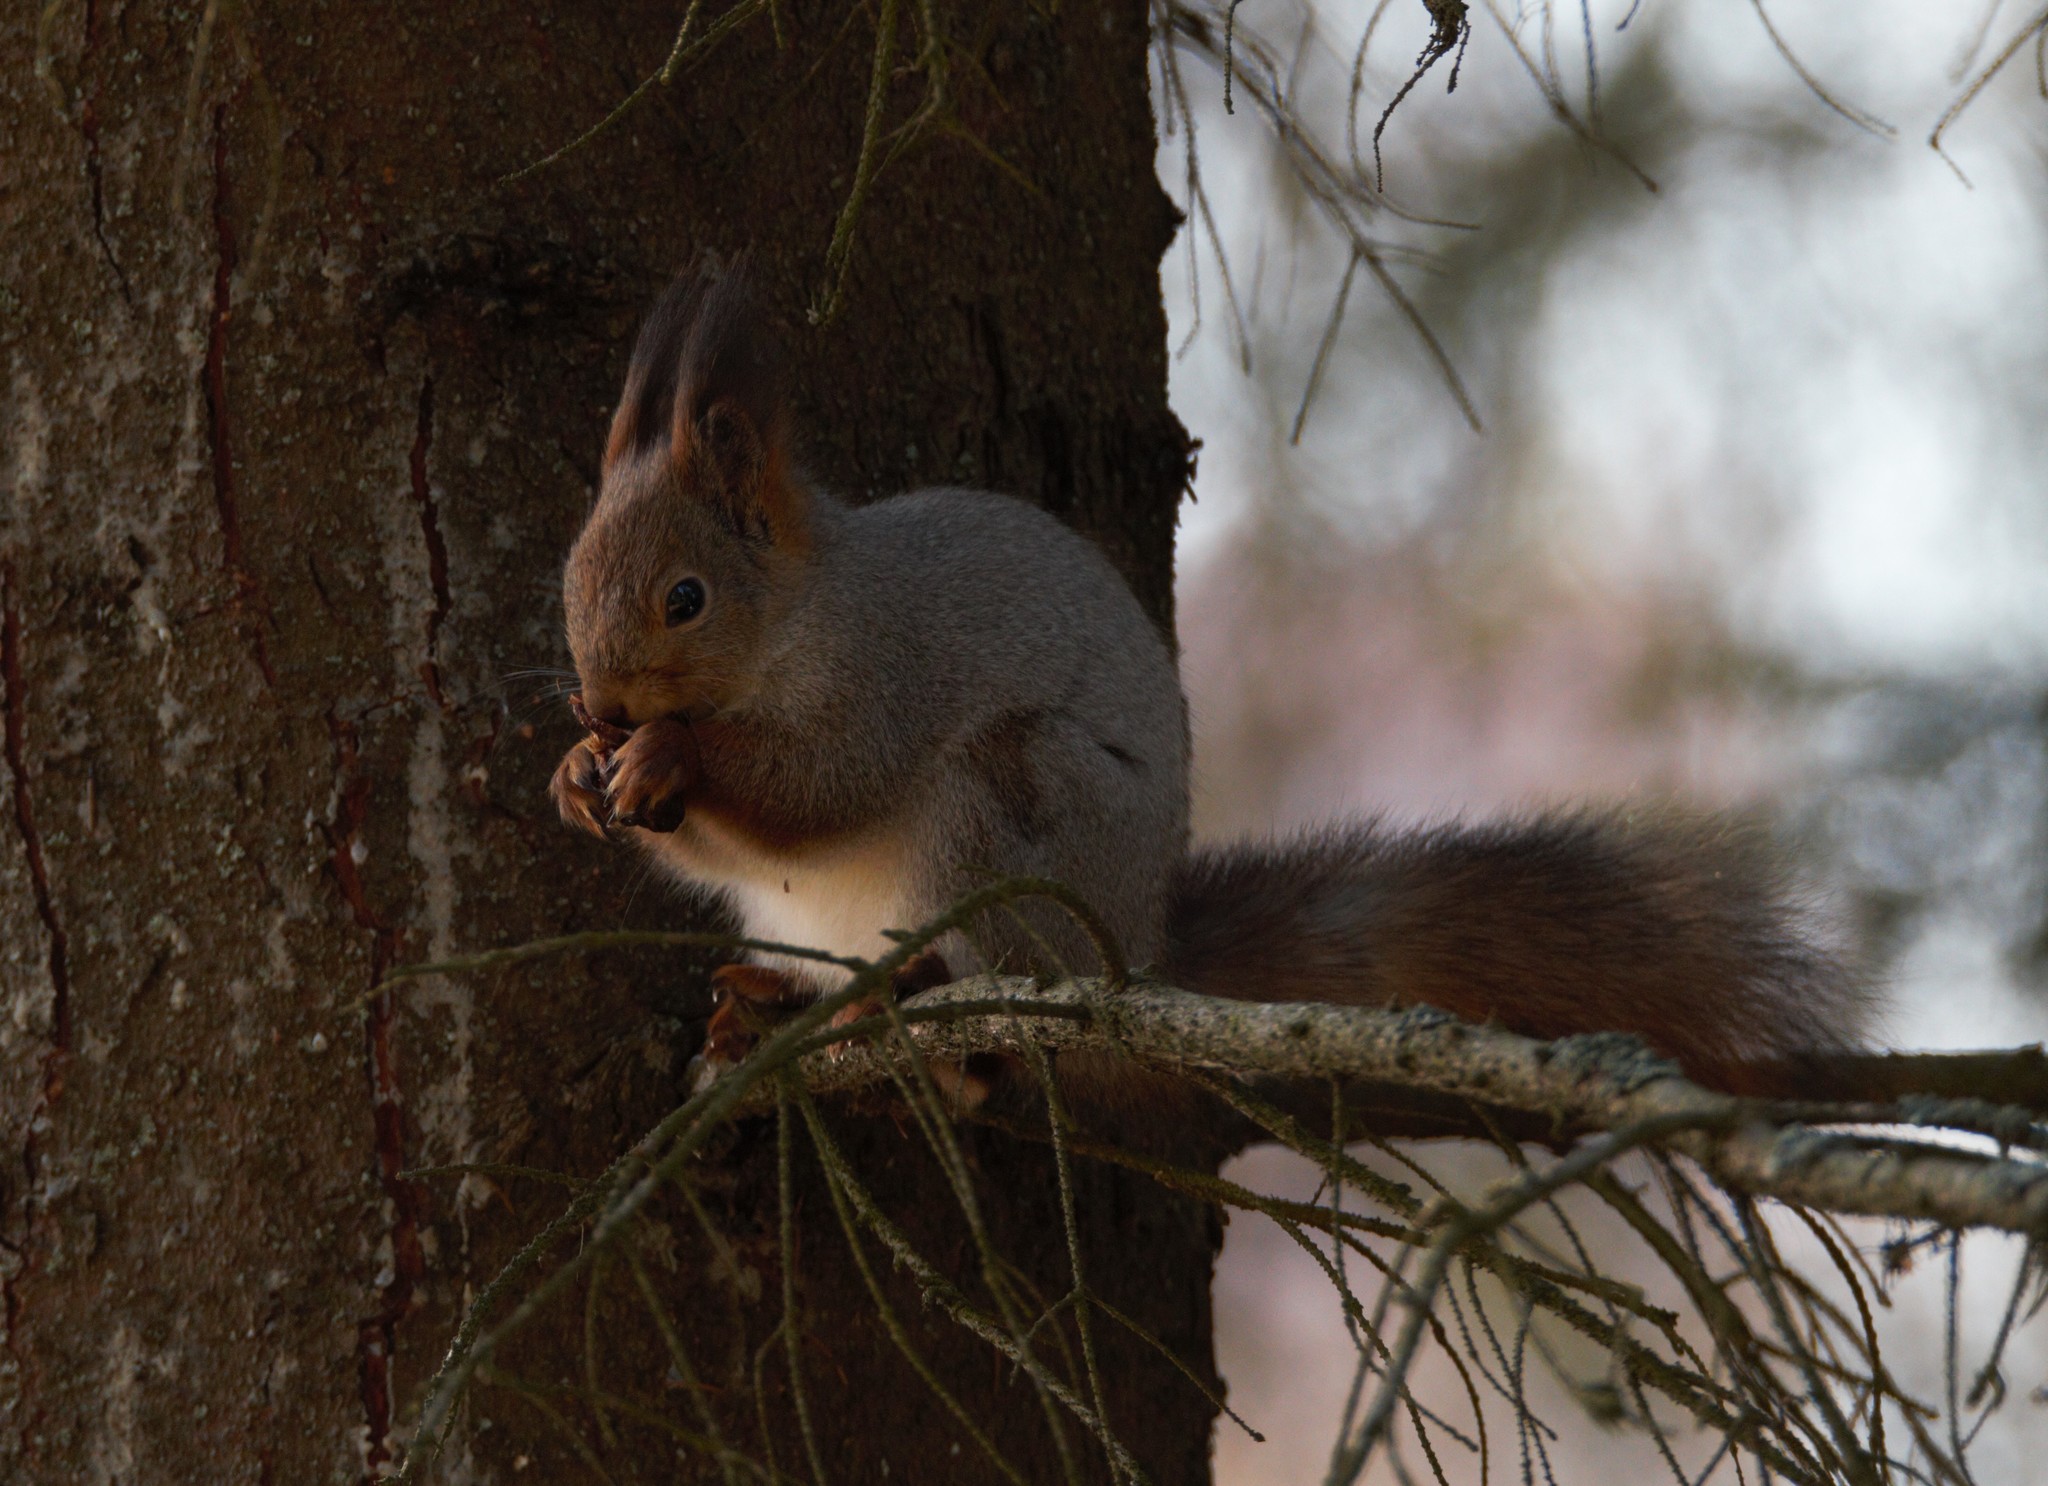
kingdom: Animalia
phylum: Chordata
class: Mammalia
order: Rodentia
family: Sciuridae
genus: Sciurus
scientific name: Sciurus vulgaris
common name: Eurasian red squirrel
